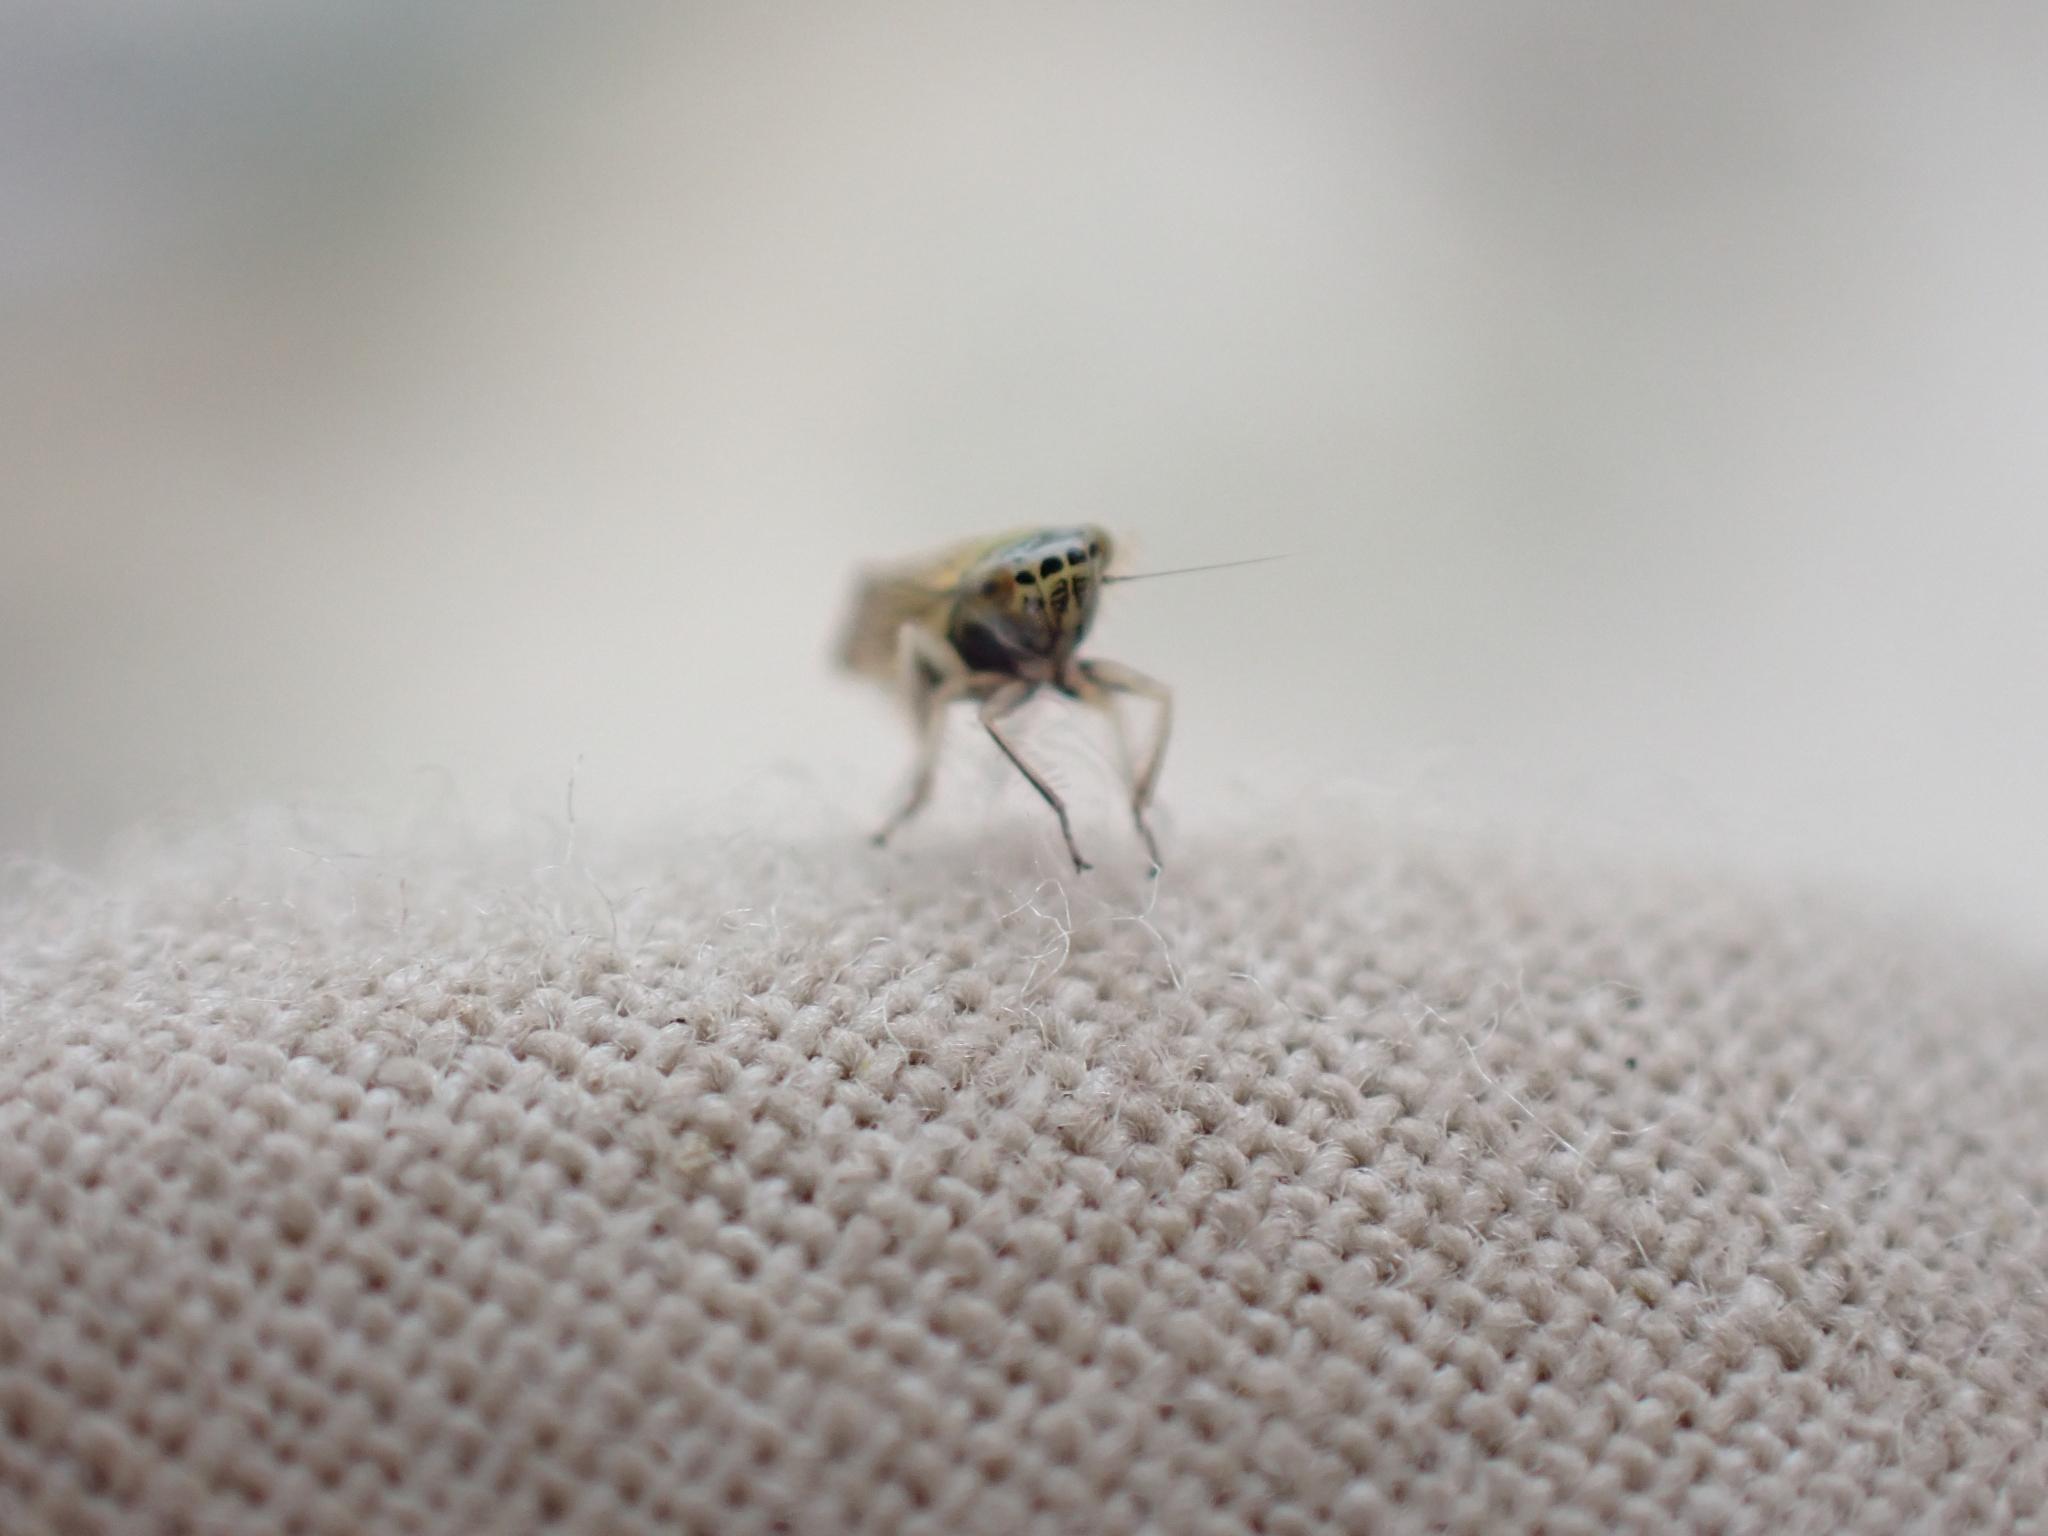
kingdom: Animalia
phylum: Arthropoda
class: Insecta
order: Hemiptera
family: Cicadellidae
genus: Cicadula
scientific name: Cicadula longiseta
